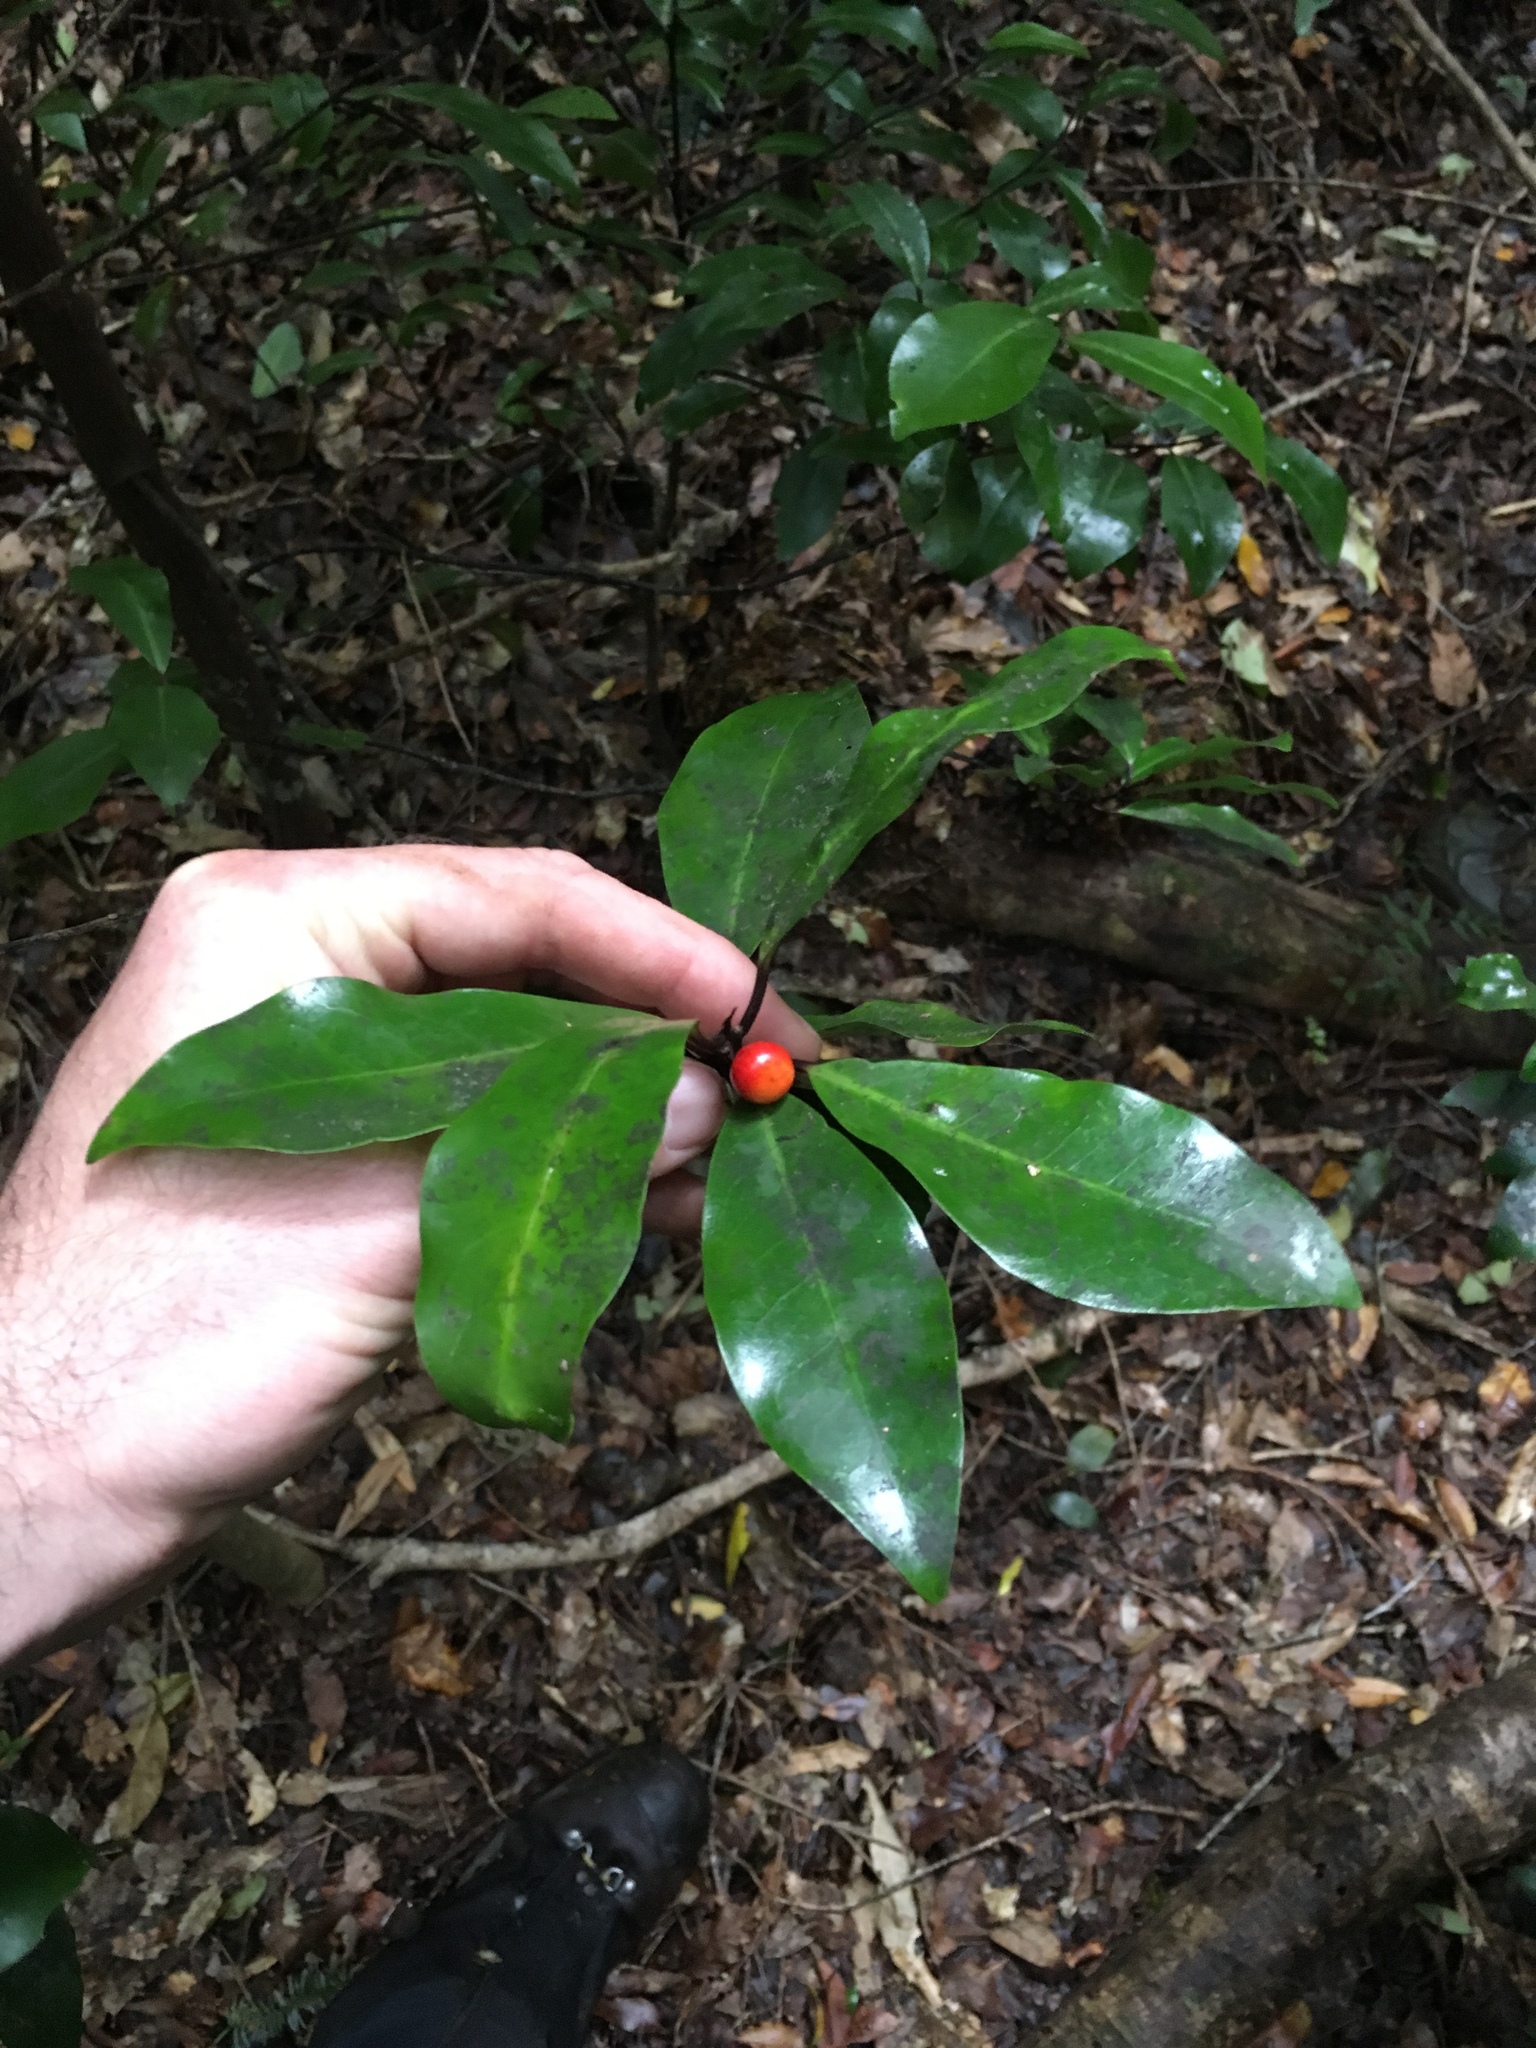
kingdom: Plantae
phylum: Tracheophyta
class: Magnoliopsida
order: Canellales
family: Winteraceae
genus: Pseudowintera
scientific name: Pseudowintera axillaris
